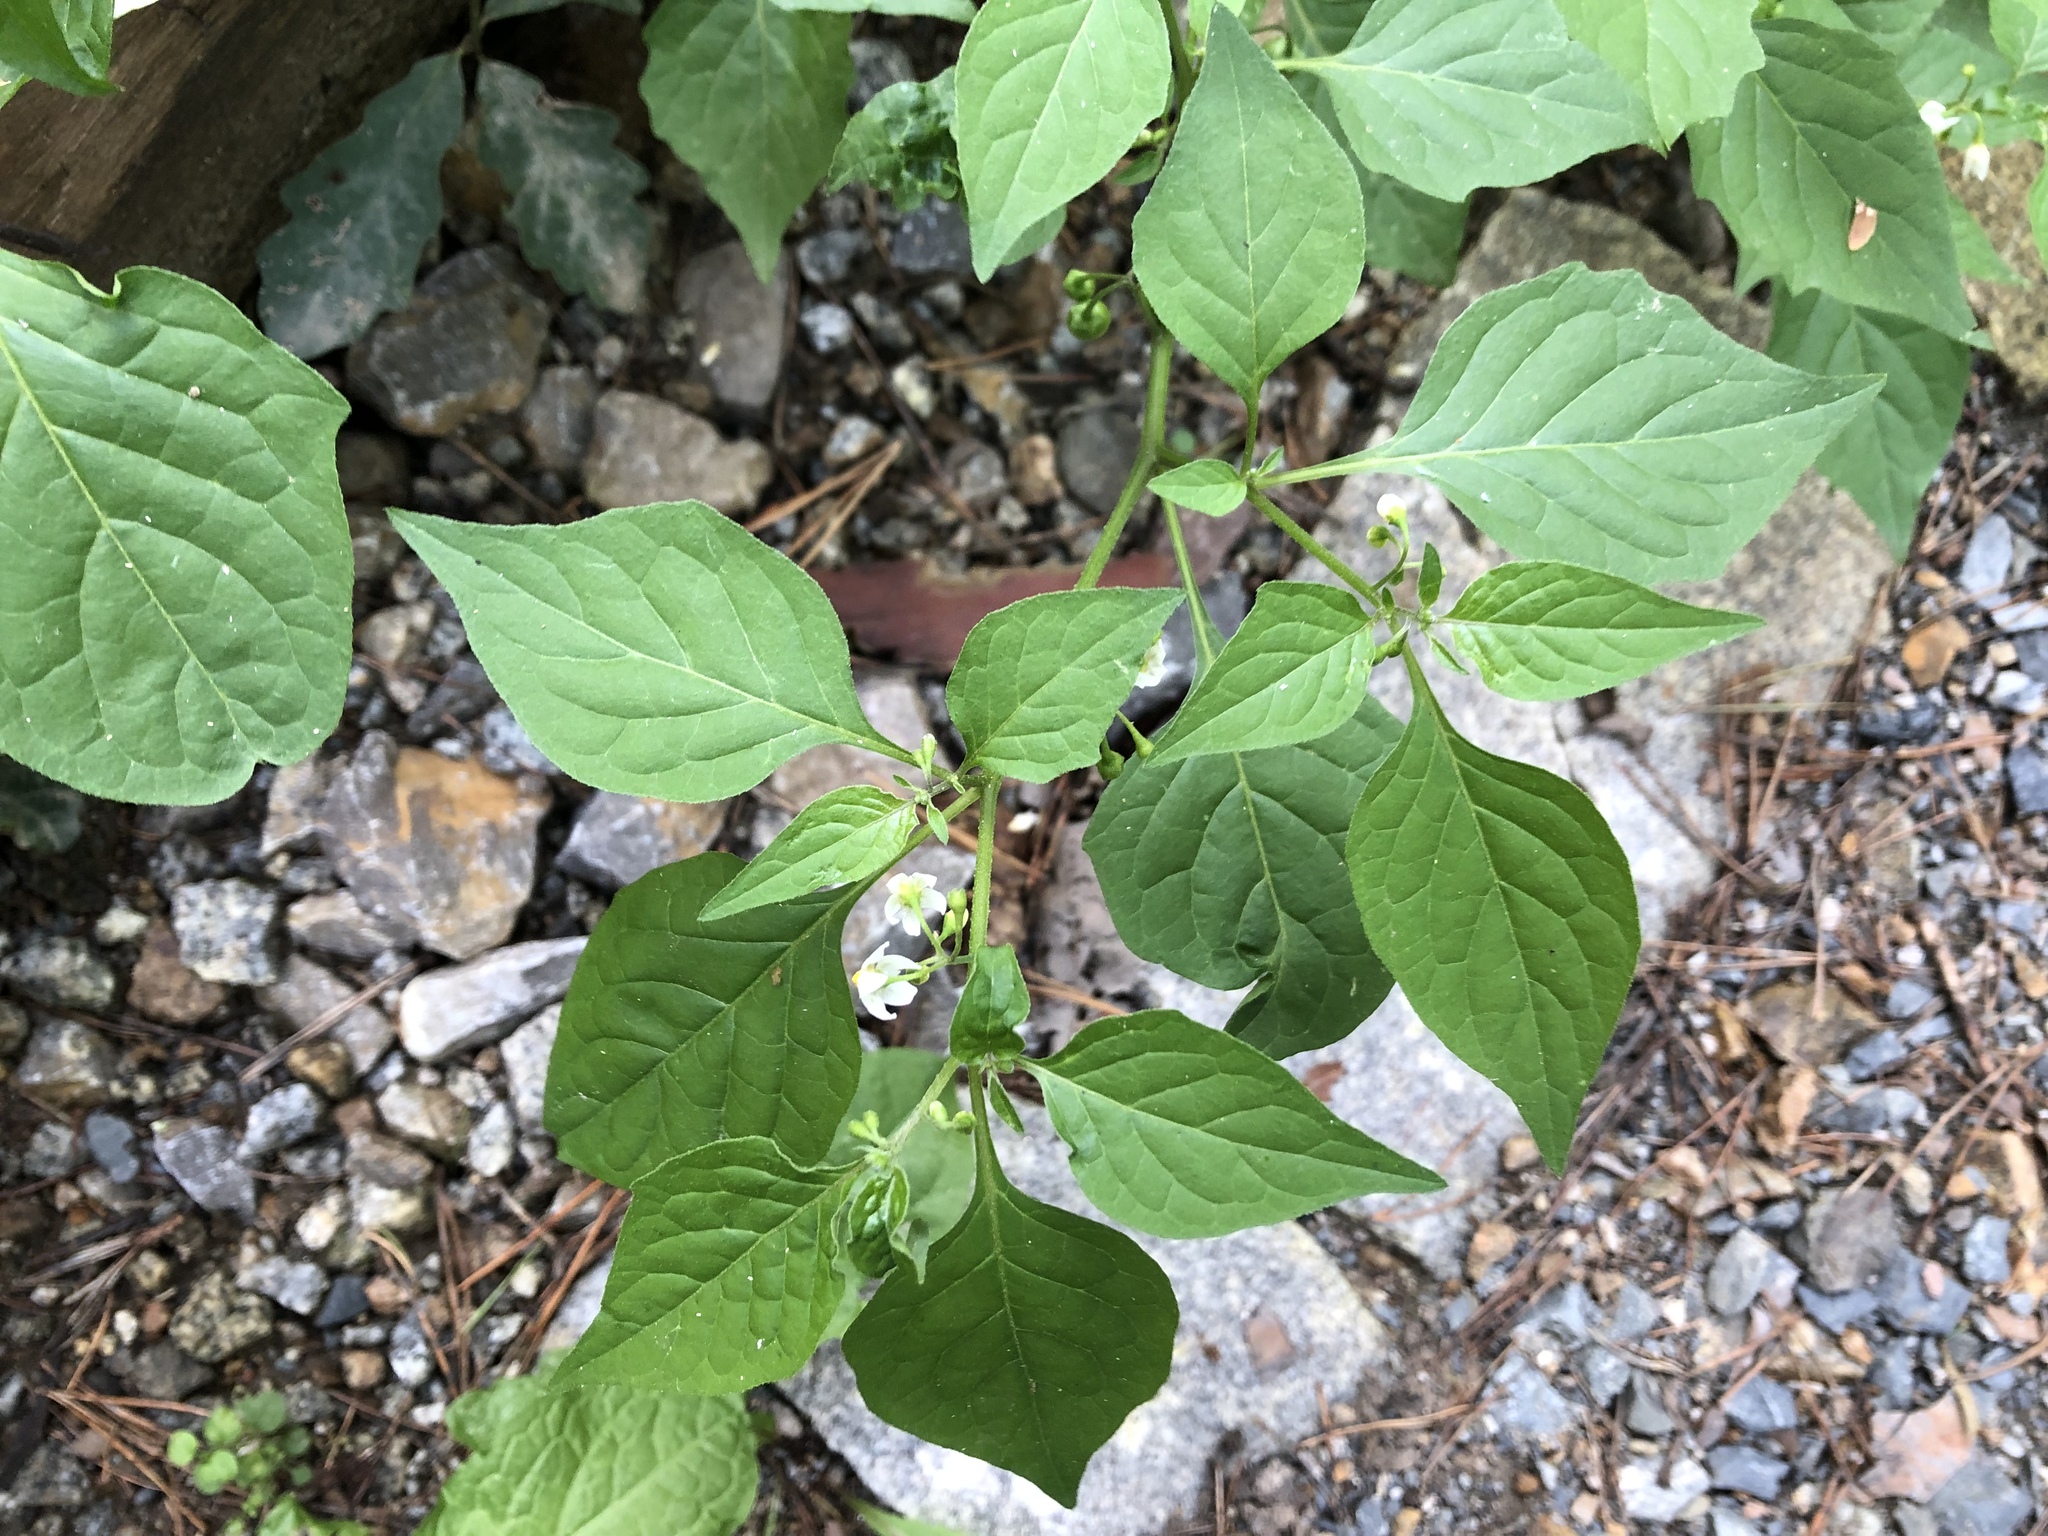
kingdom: Plantae
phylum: Tracheophyta
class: Magnoliopsida
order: Solanales
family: Solanaceae
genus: Solanum
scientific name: Solanum nigrum
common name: Black nightshade
